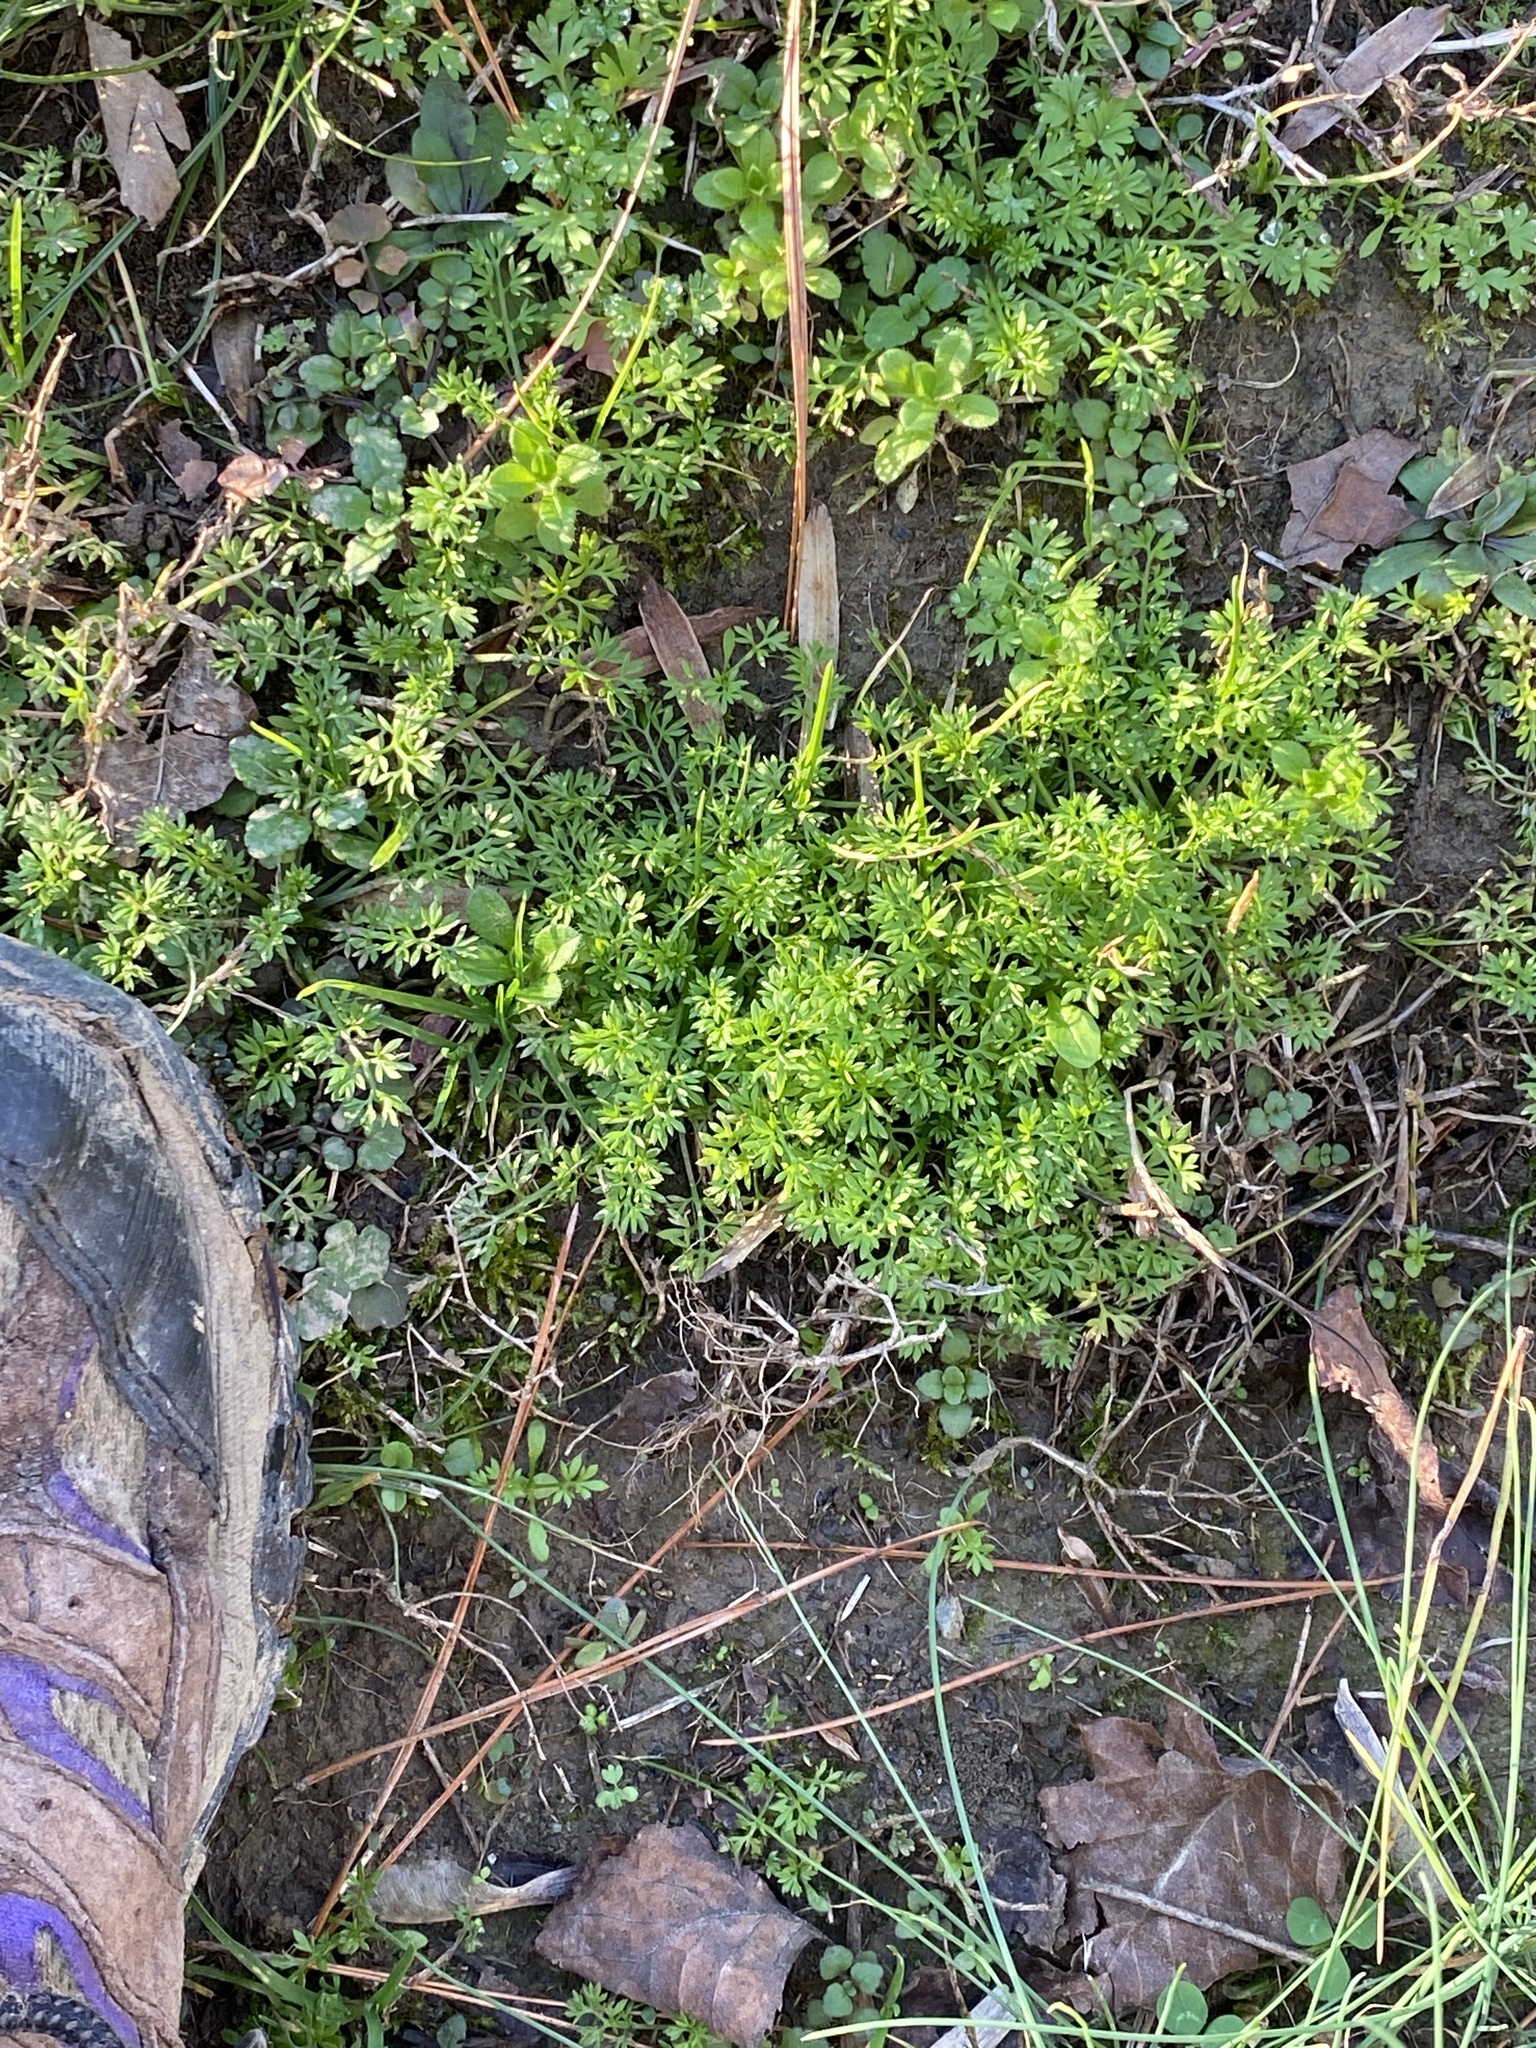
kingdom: Plantae
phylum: Tracheophyta
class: Magnoliopsida
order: Asterales
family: Asteraceae
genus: Soliva
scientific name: Soliva sessilis
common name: Field burrweed
